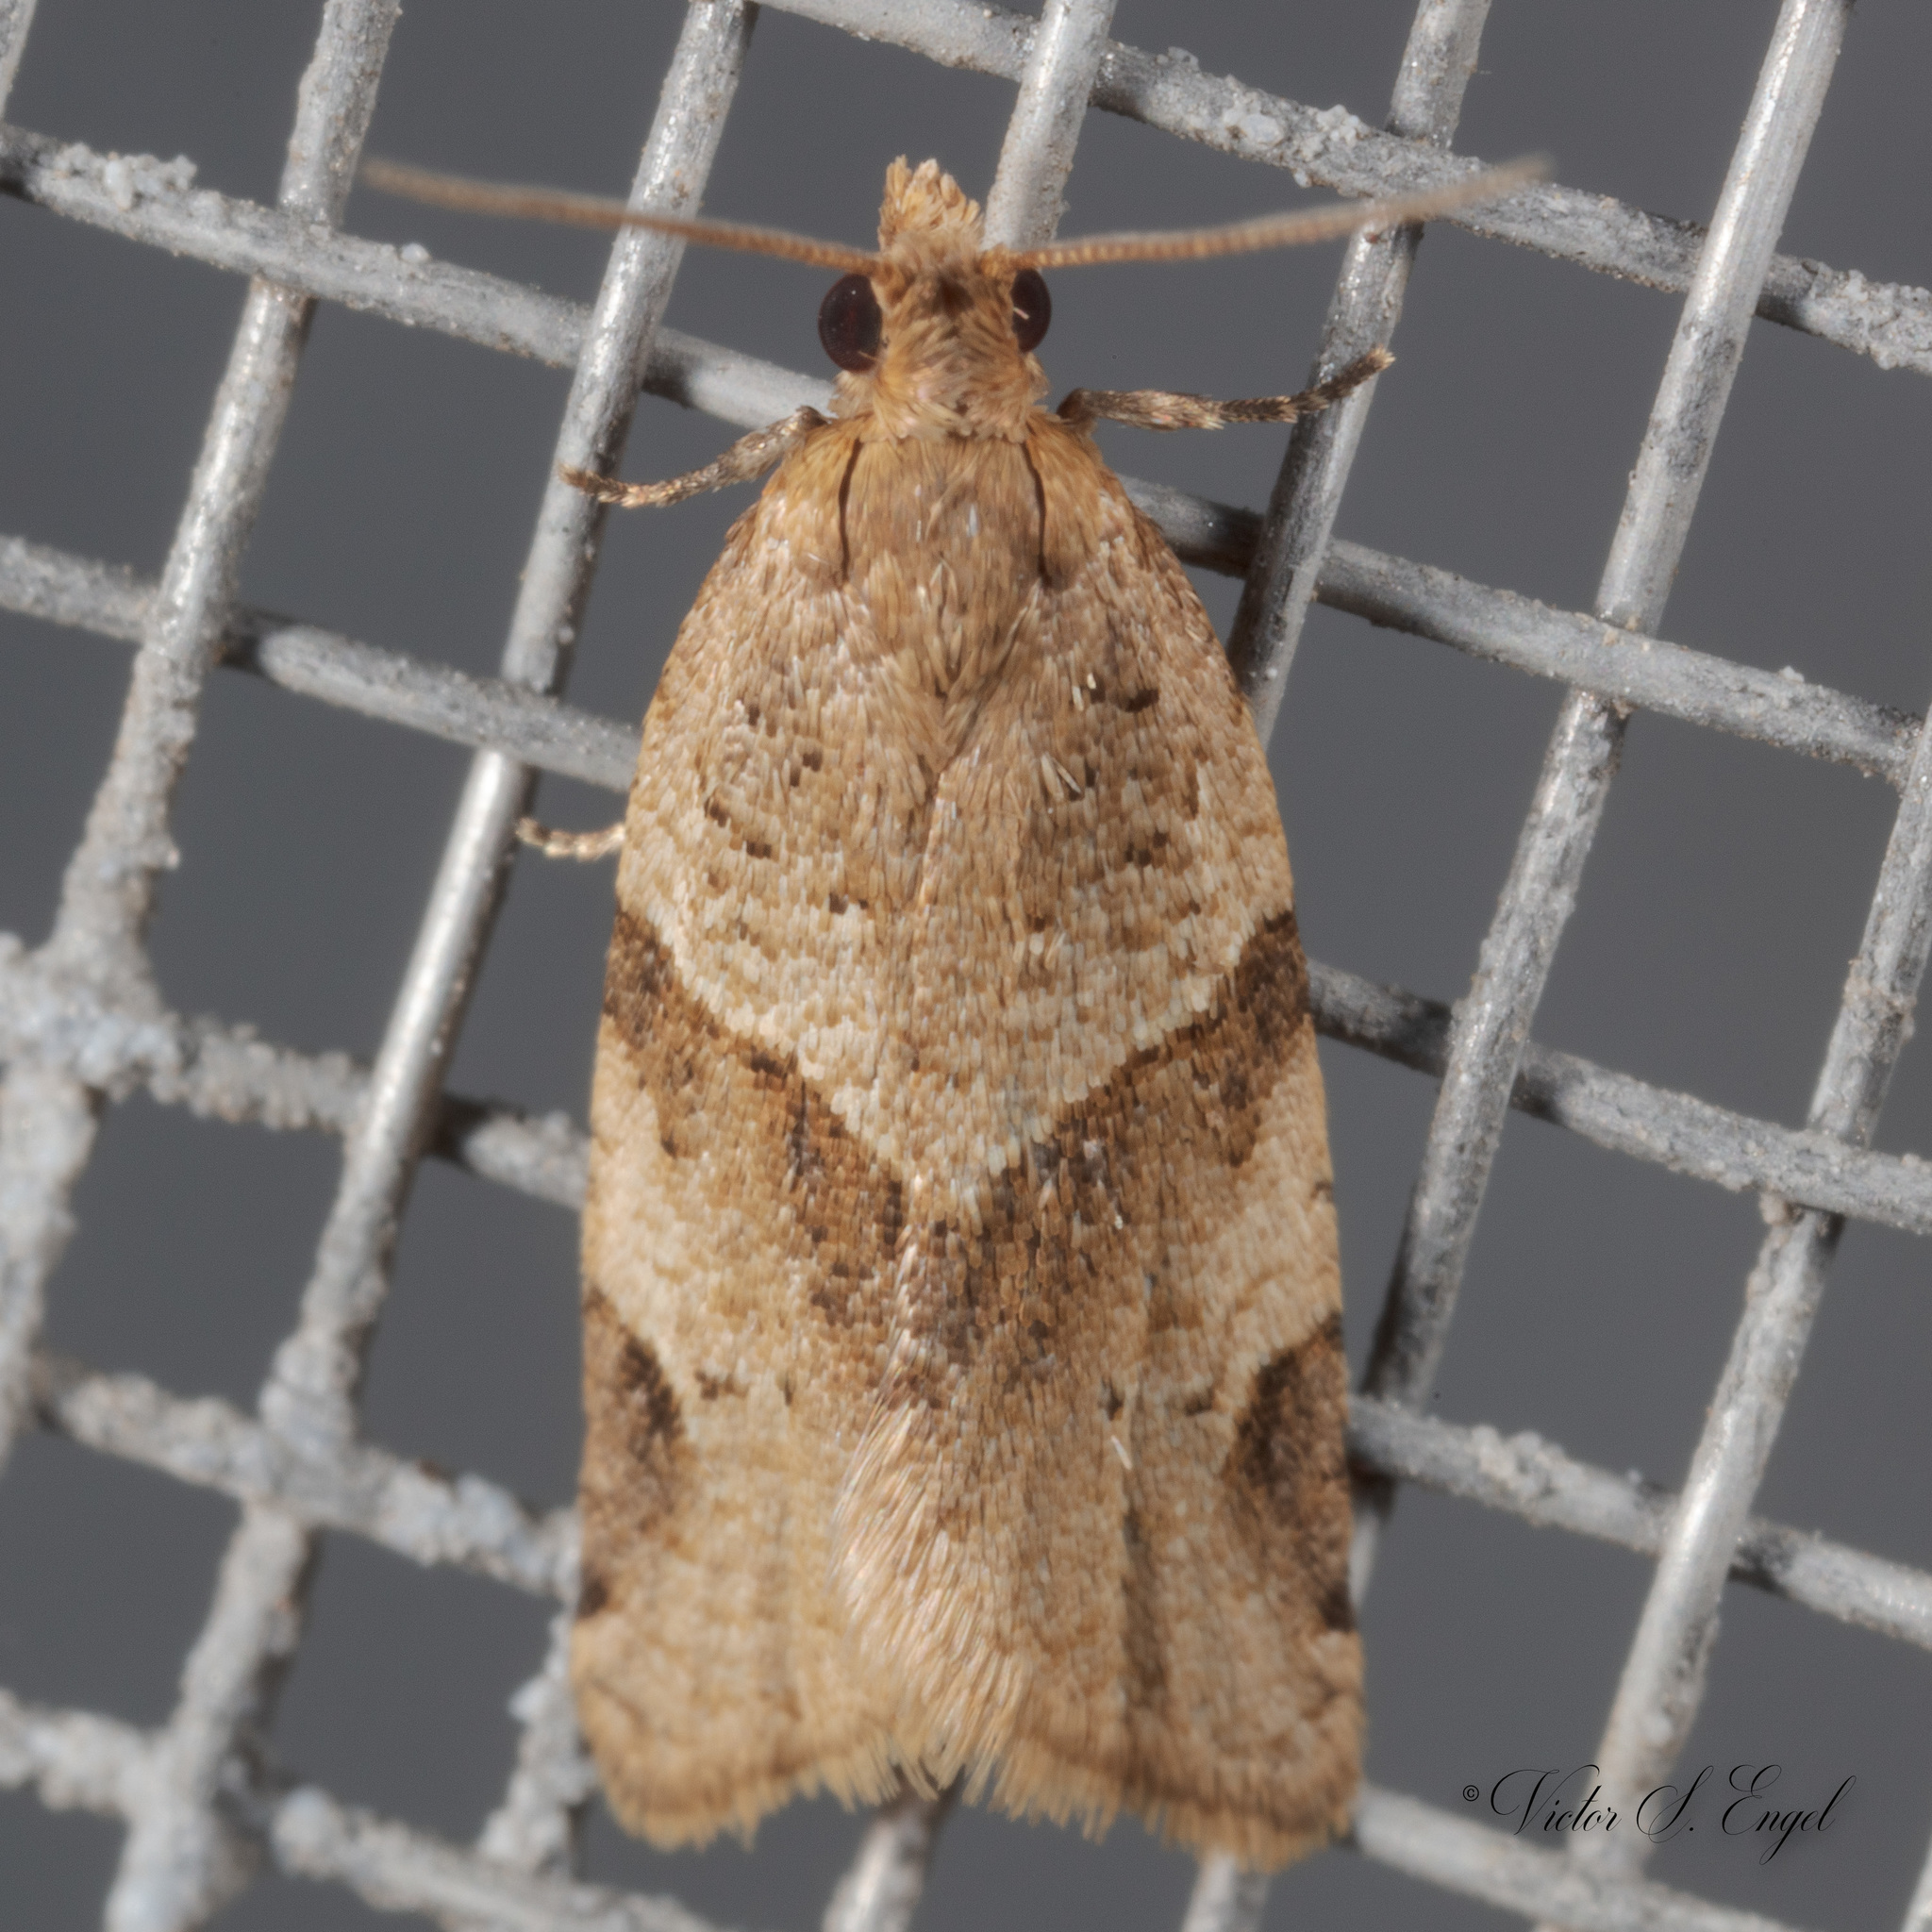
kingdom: Animalia
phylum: Arthropoda
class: Insecta
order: Lepidoptera
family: Tortricidae
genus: Clepsis
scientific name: Clepsis peritana
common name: Garden tortrix
